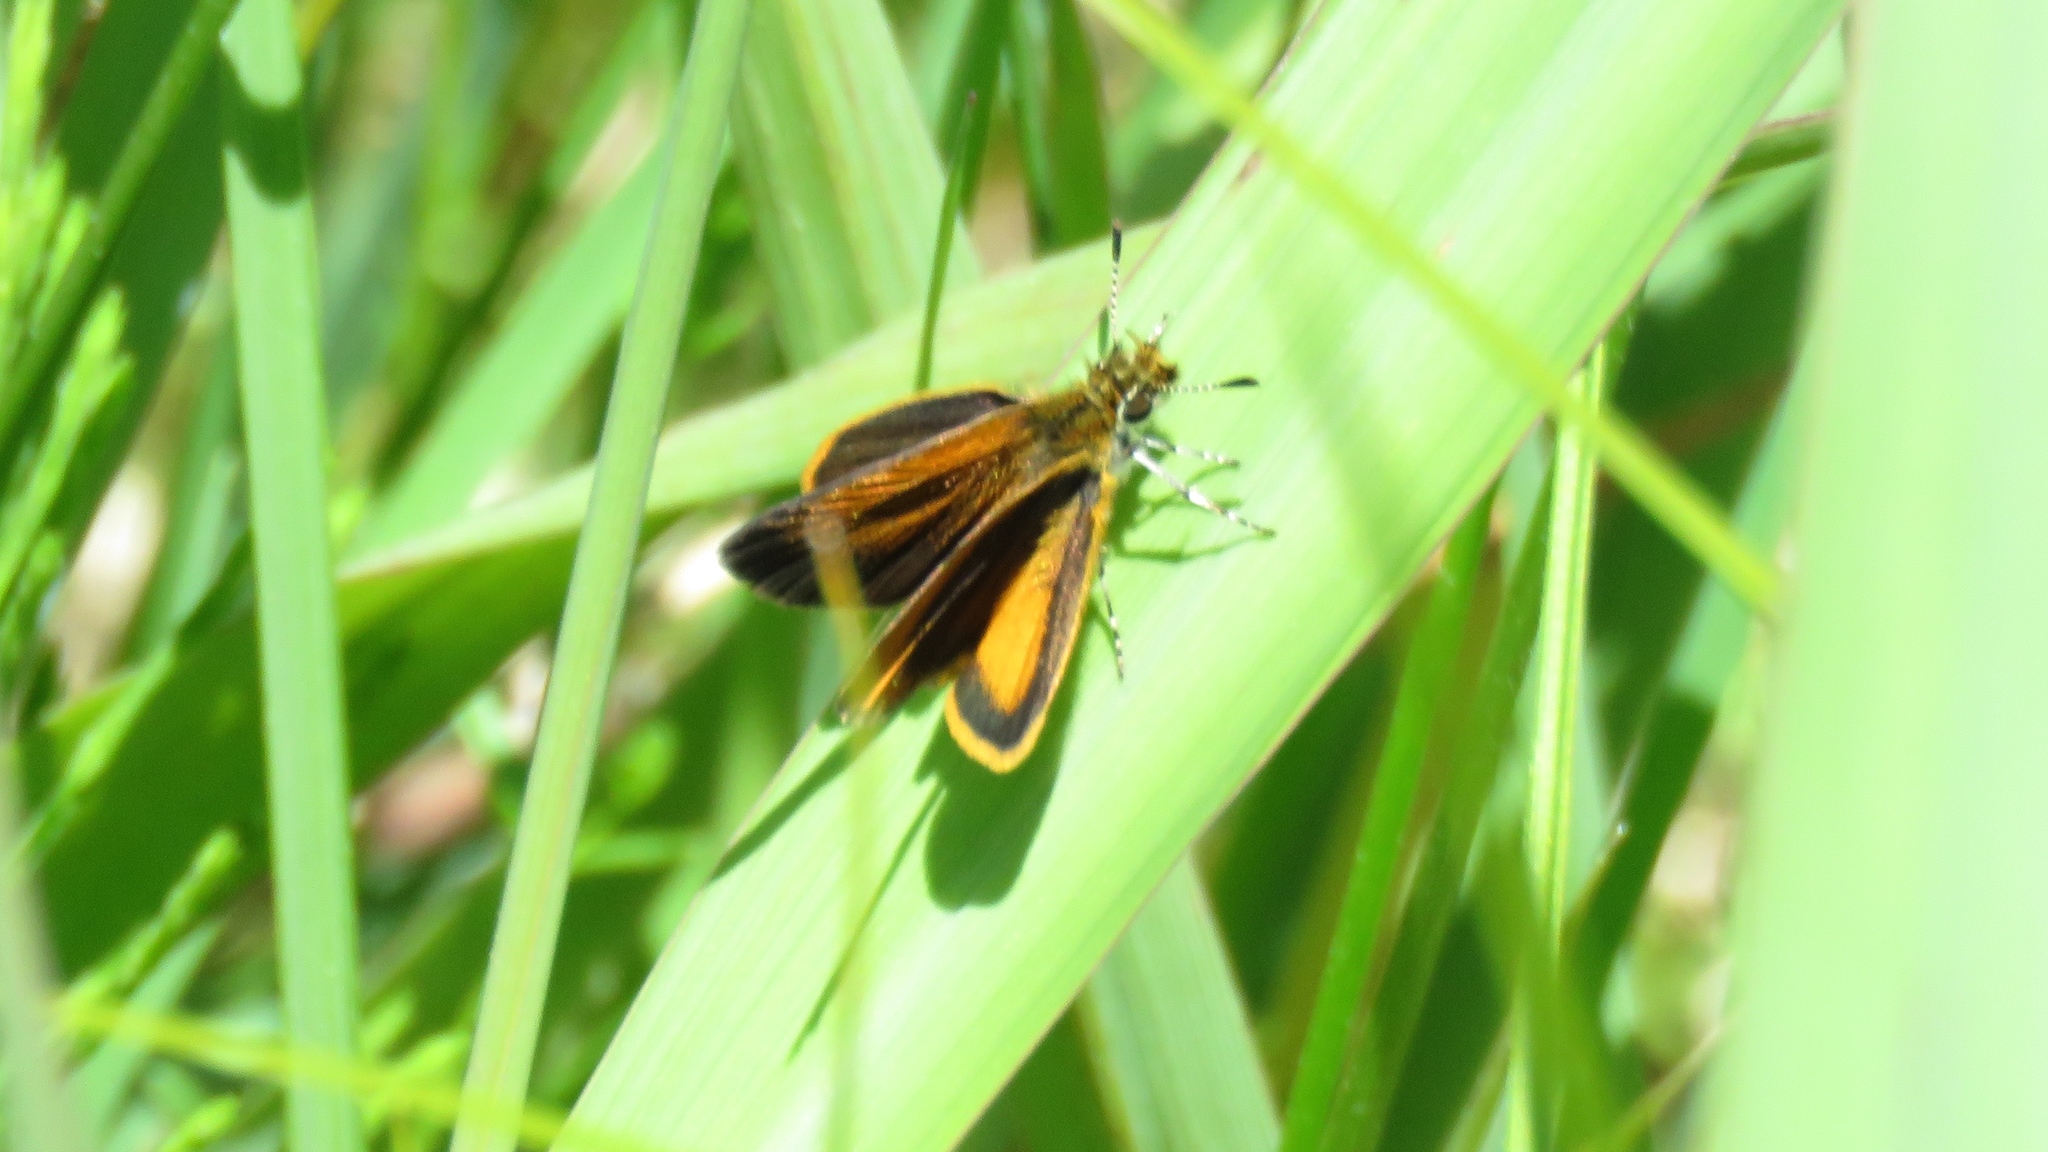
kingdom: Animalia
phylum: Arthropoda
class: Insecta
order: Lepidoptera
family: Hesperiidae
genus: Ancyloxypha
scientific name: Ancyloxypha numitor
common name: Least skipper
